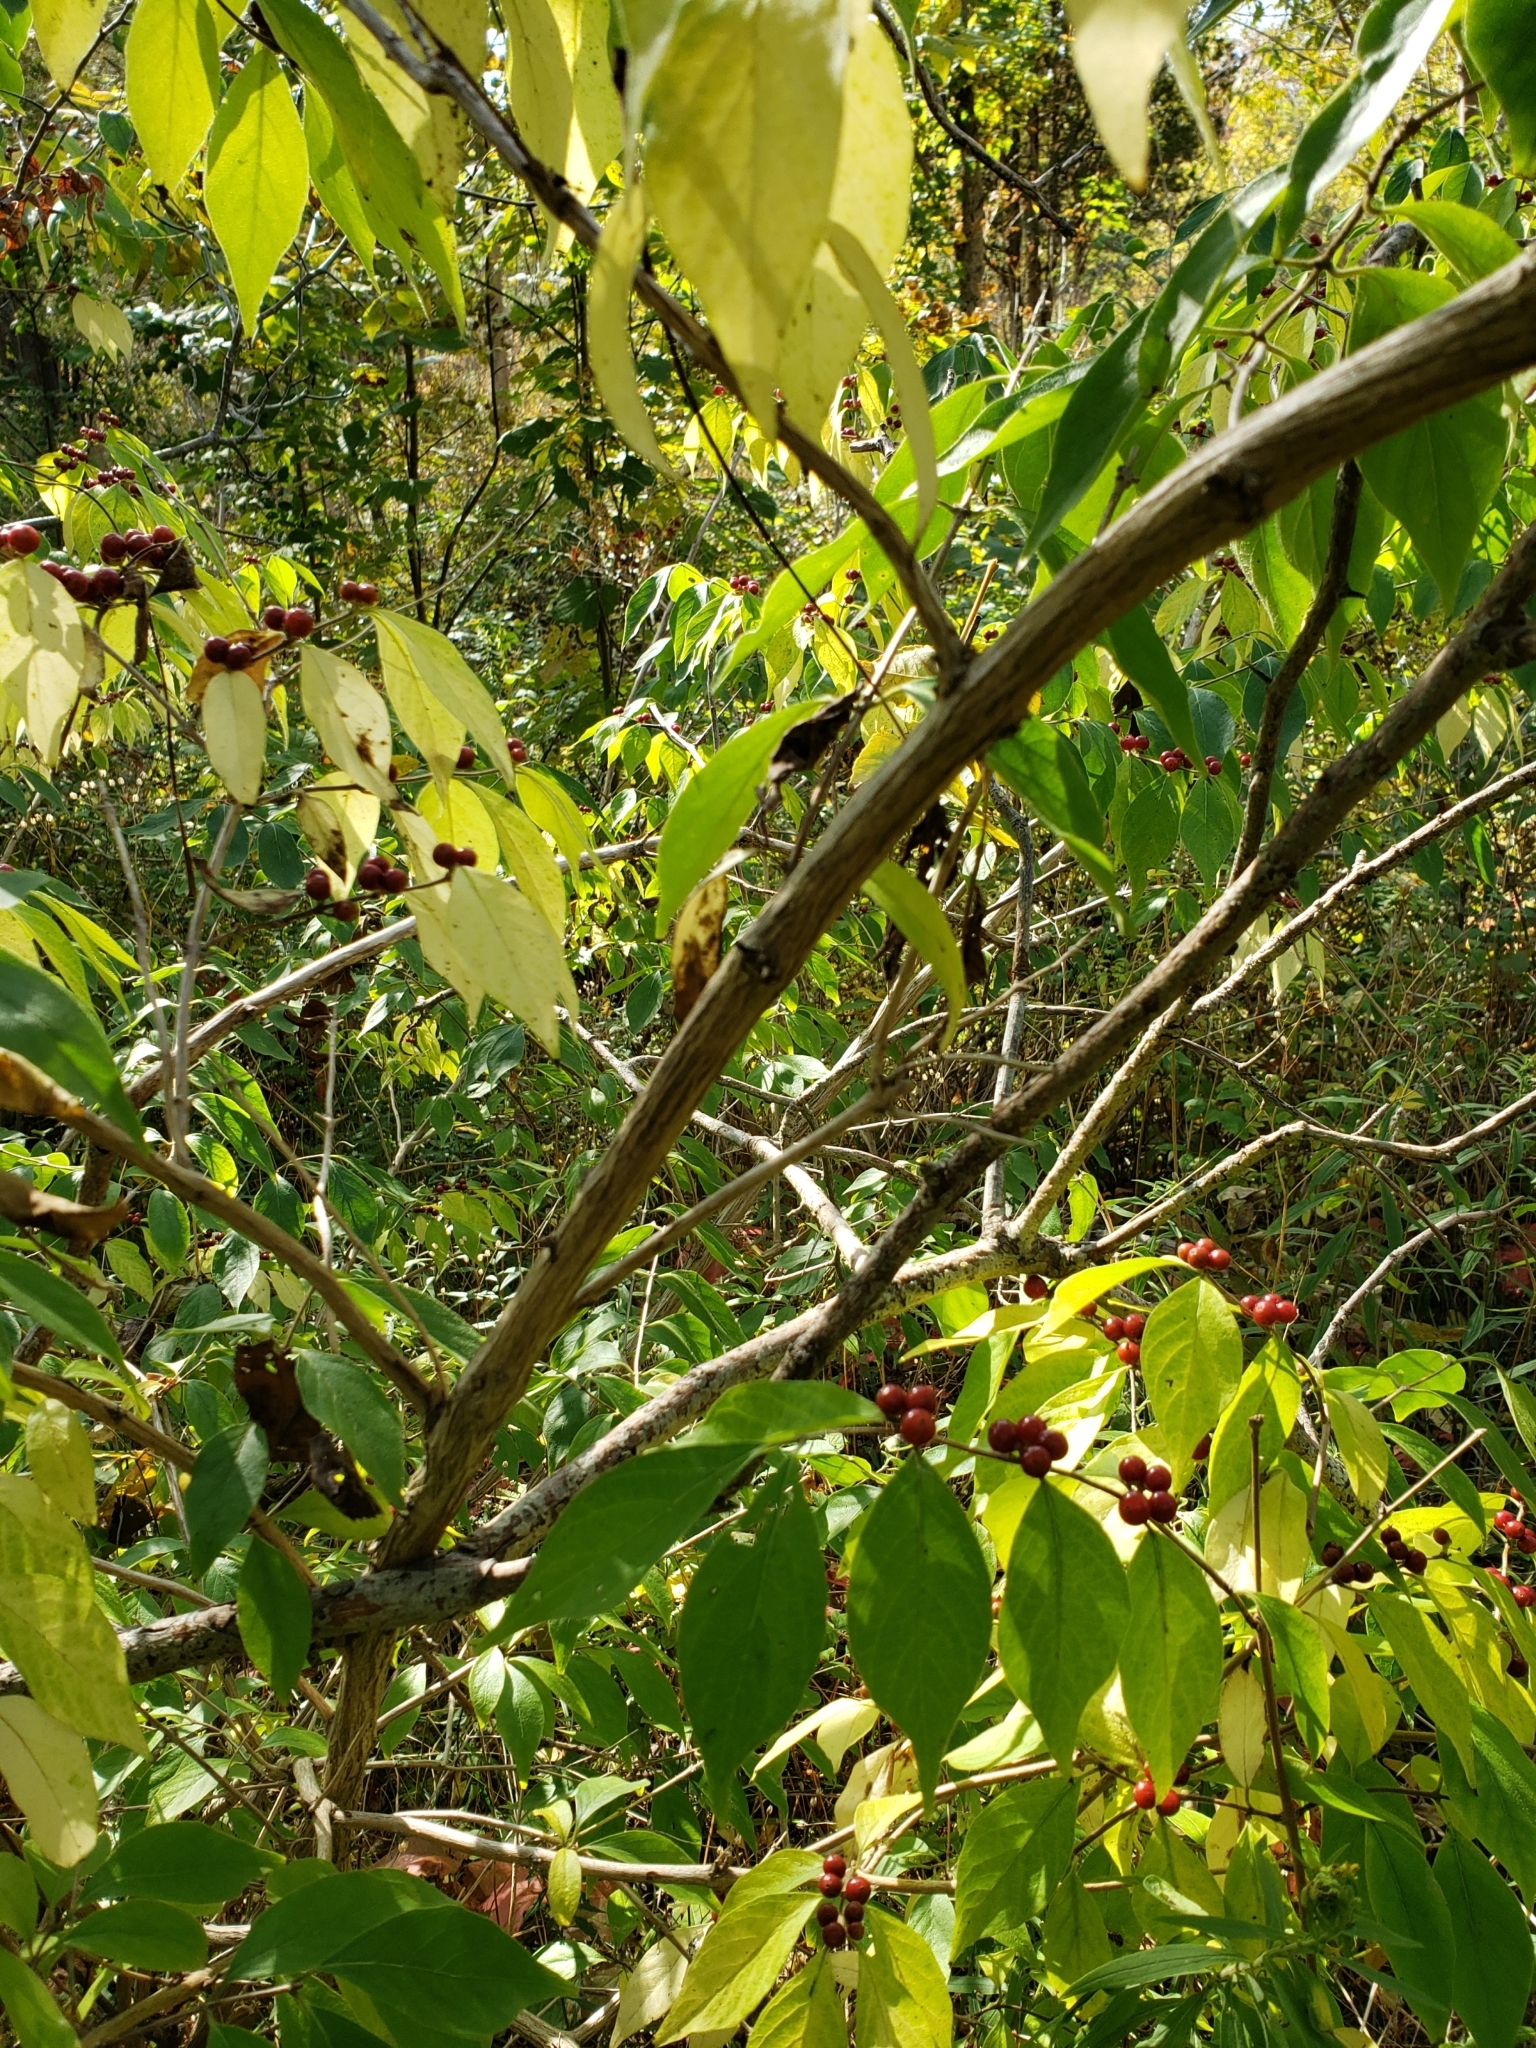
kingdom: Plantae
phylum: Tracheophyta
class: Magnoliopsida
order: Dipsacales
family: Caprifoliaceae
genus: Lonicera
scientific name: Lonicera maackii
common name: Amur honeysuckle
